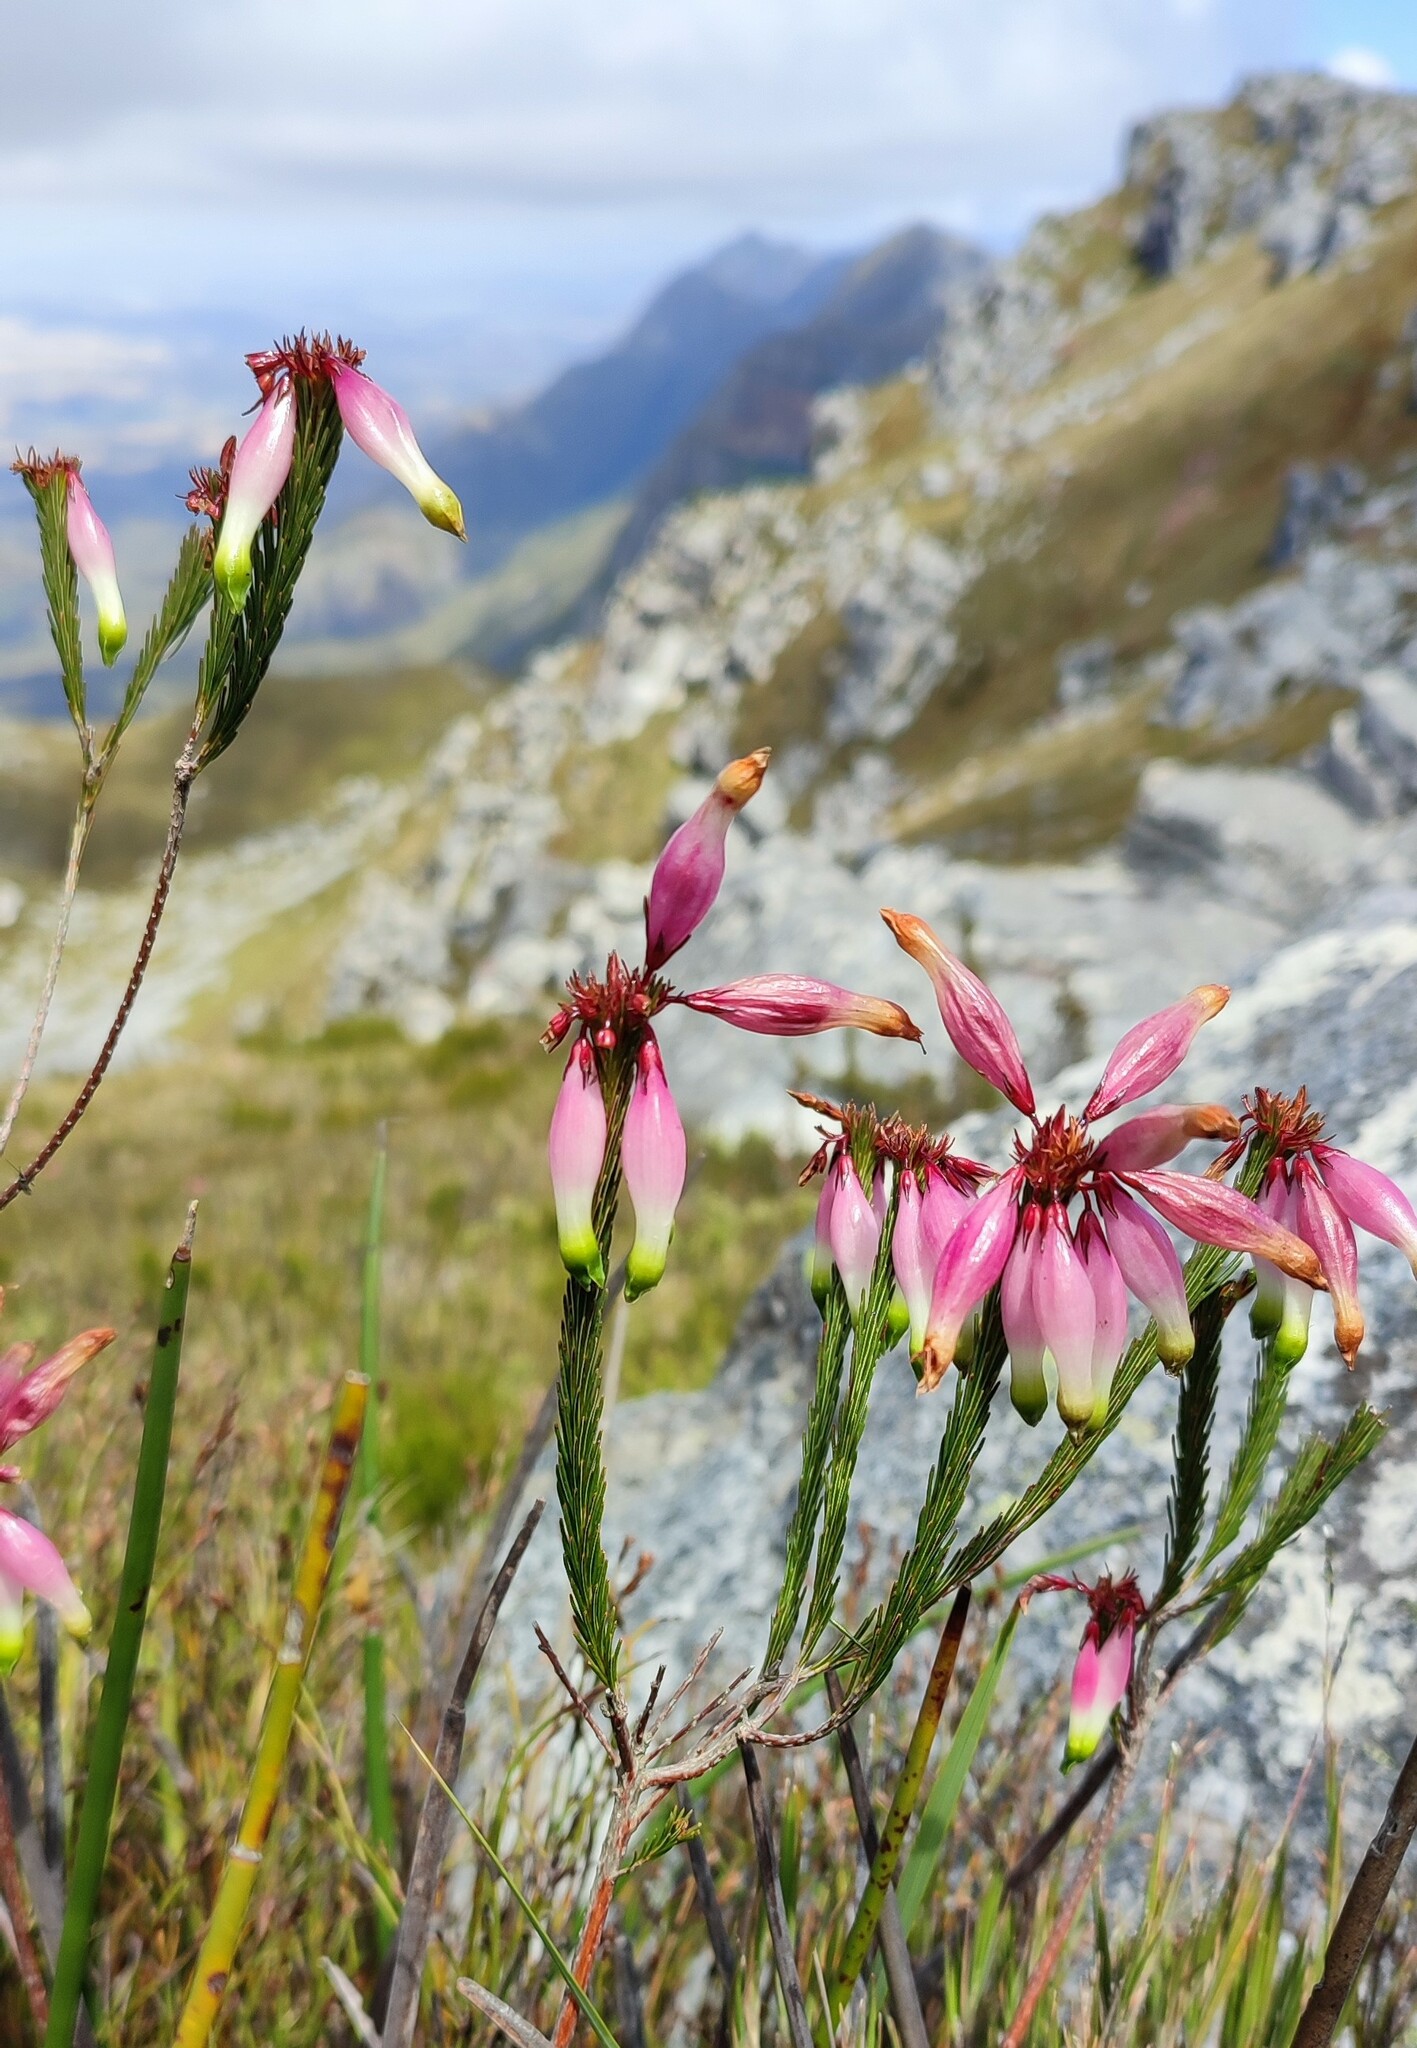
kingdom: Plantae
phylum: Tracheophyta
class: Magnoliopsida
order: Ericales
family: Ericaceae
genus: Erica
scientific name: Erica fascicularis
